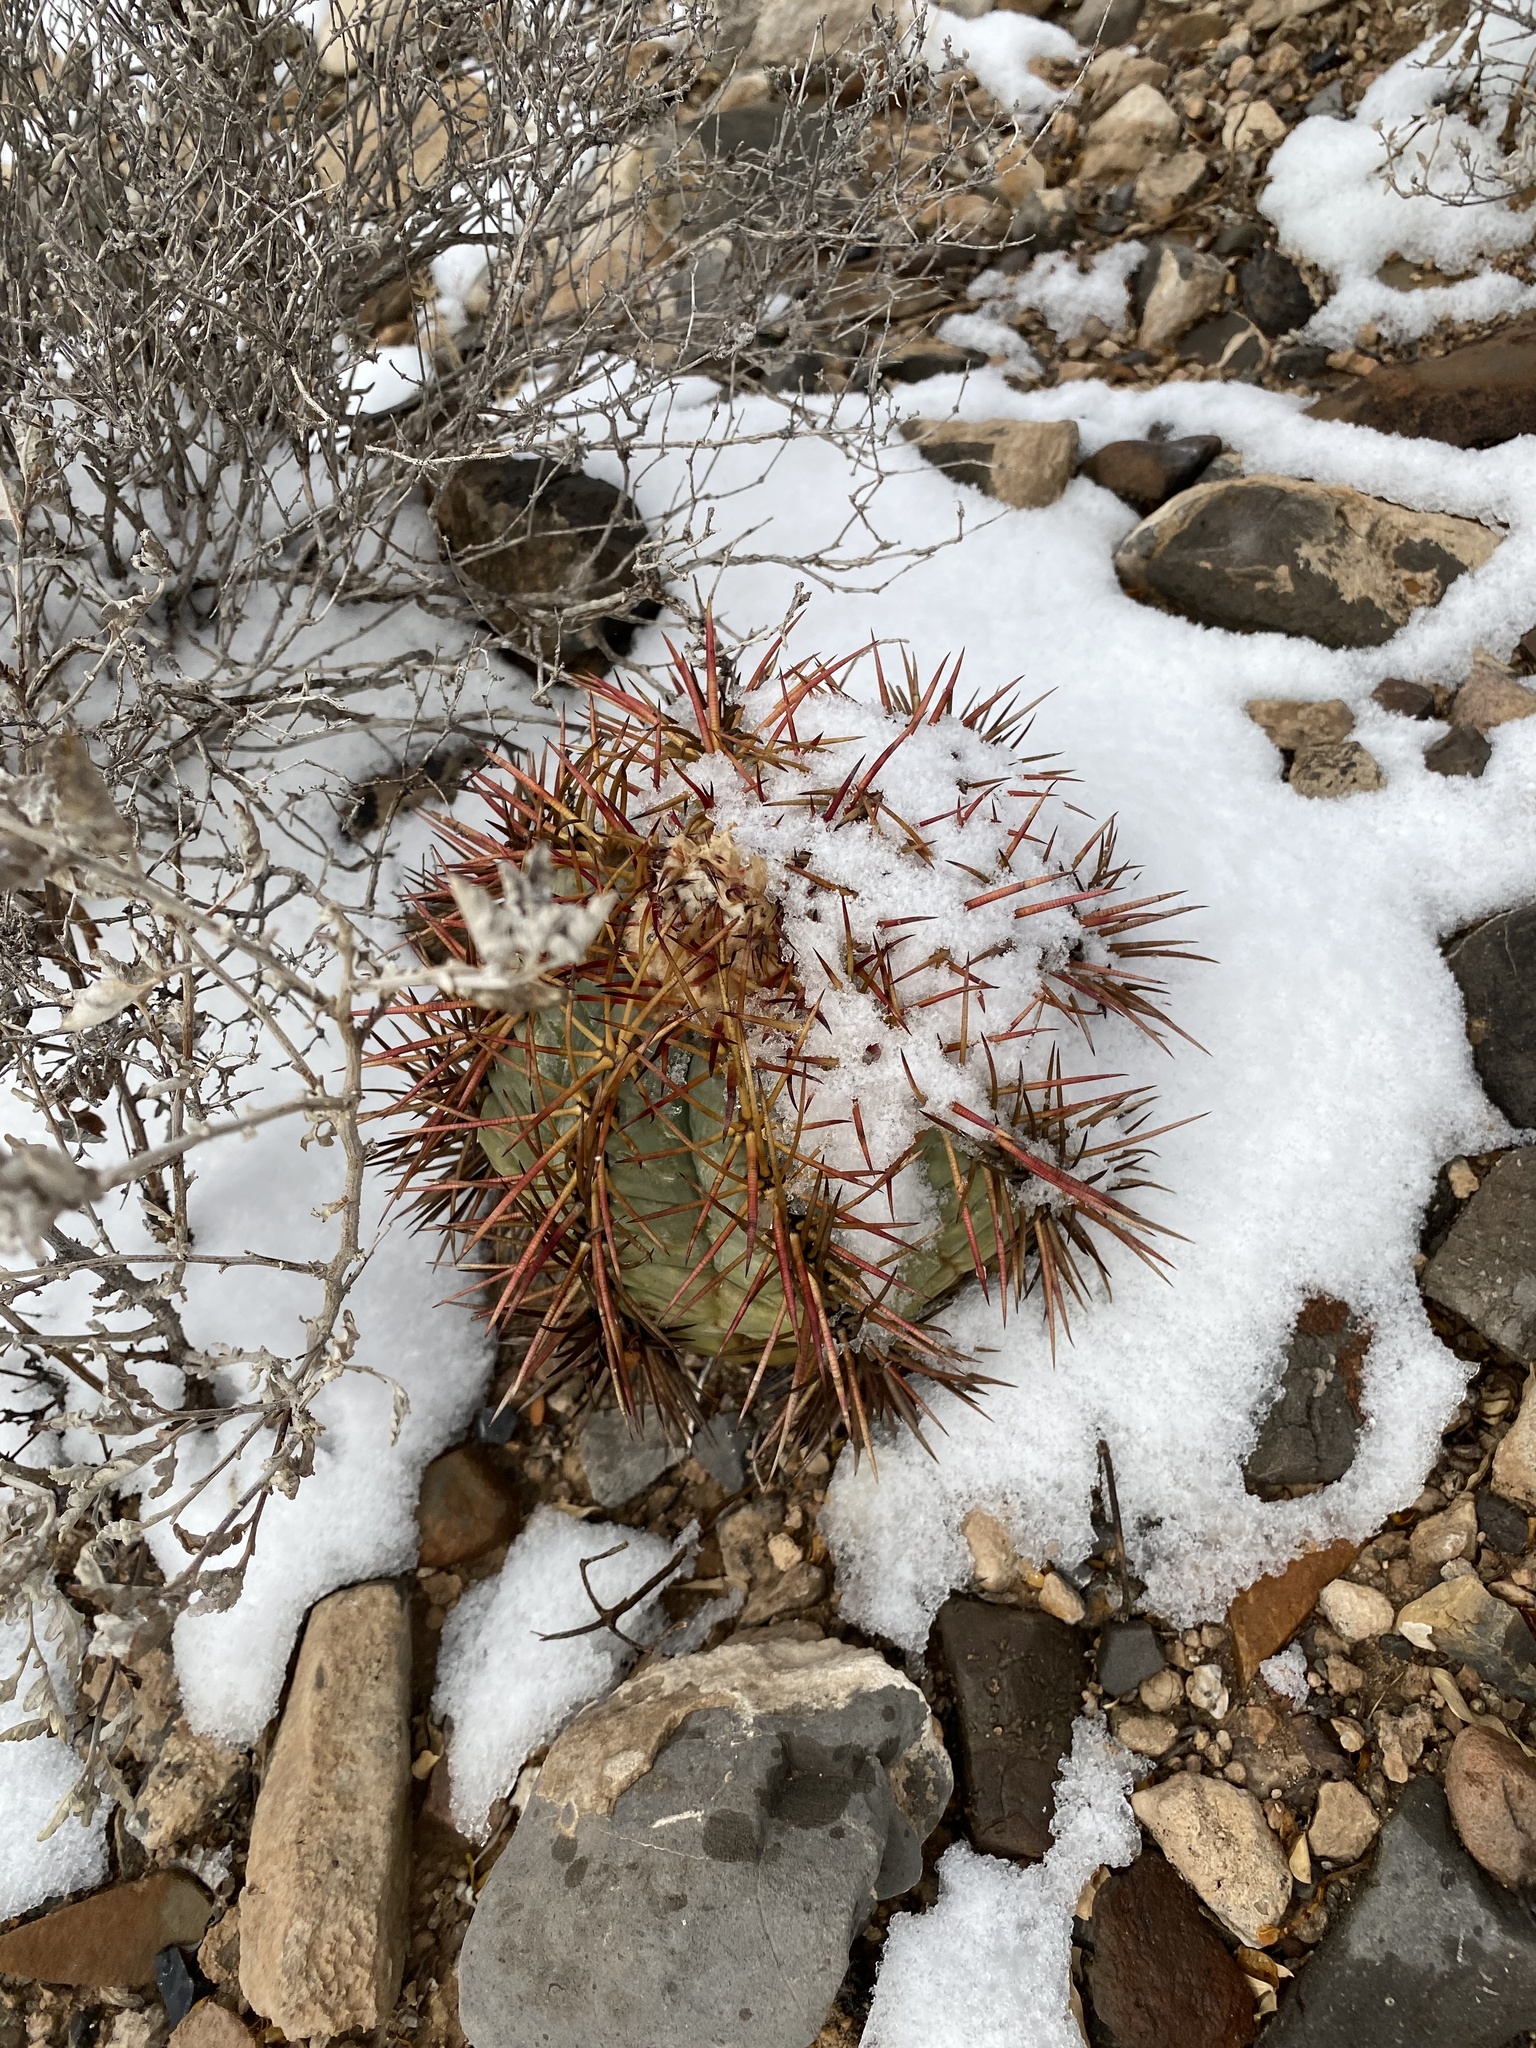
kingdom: Plantae
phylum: Tracheophyta
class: Magnoliopsida
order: Caryophyllales
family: Cactaceae
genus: Echinocactus
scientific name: Echinocactus horizonthalonius
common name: Devilshead
